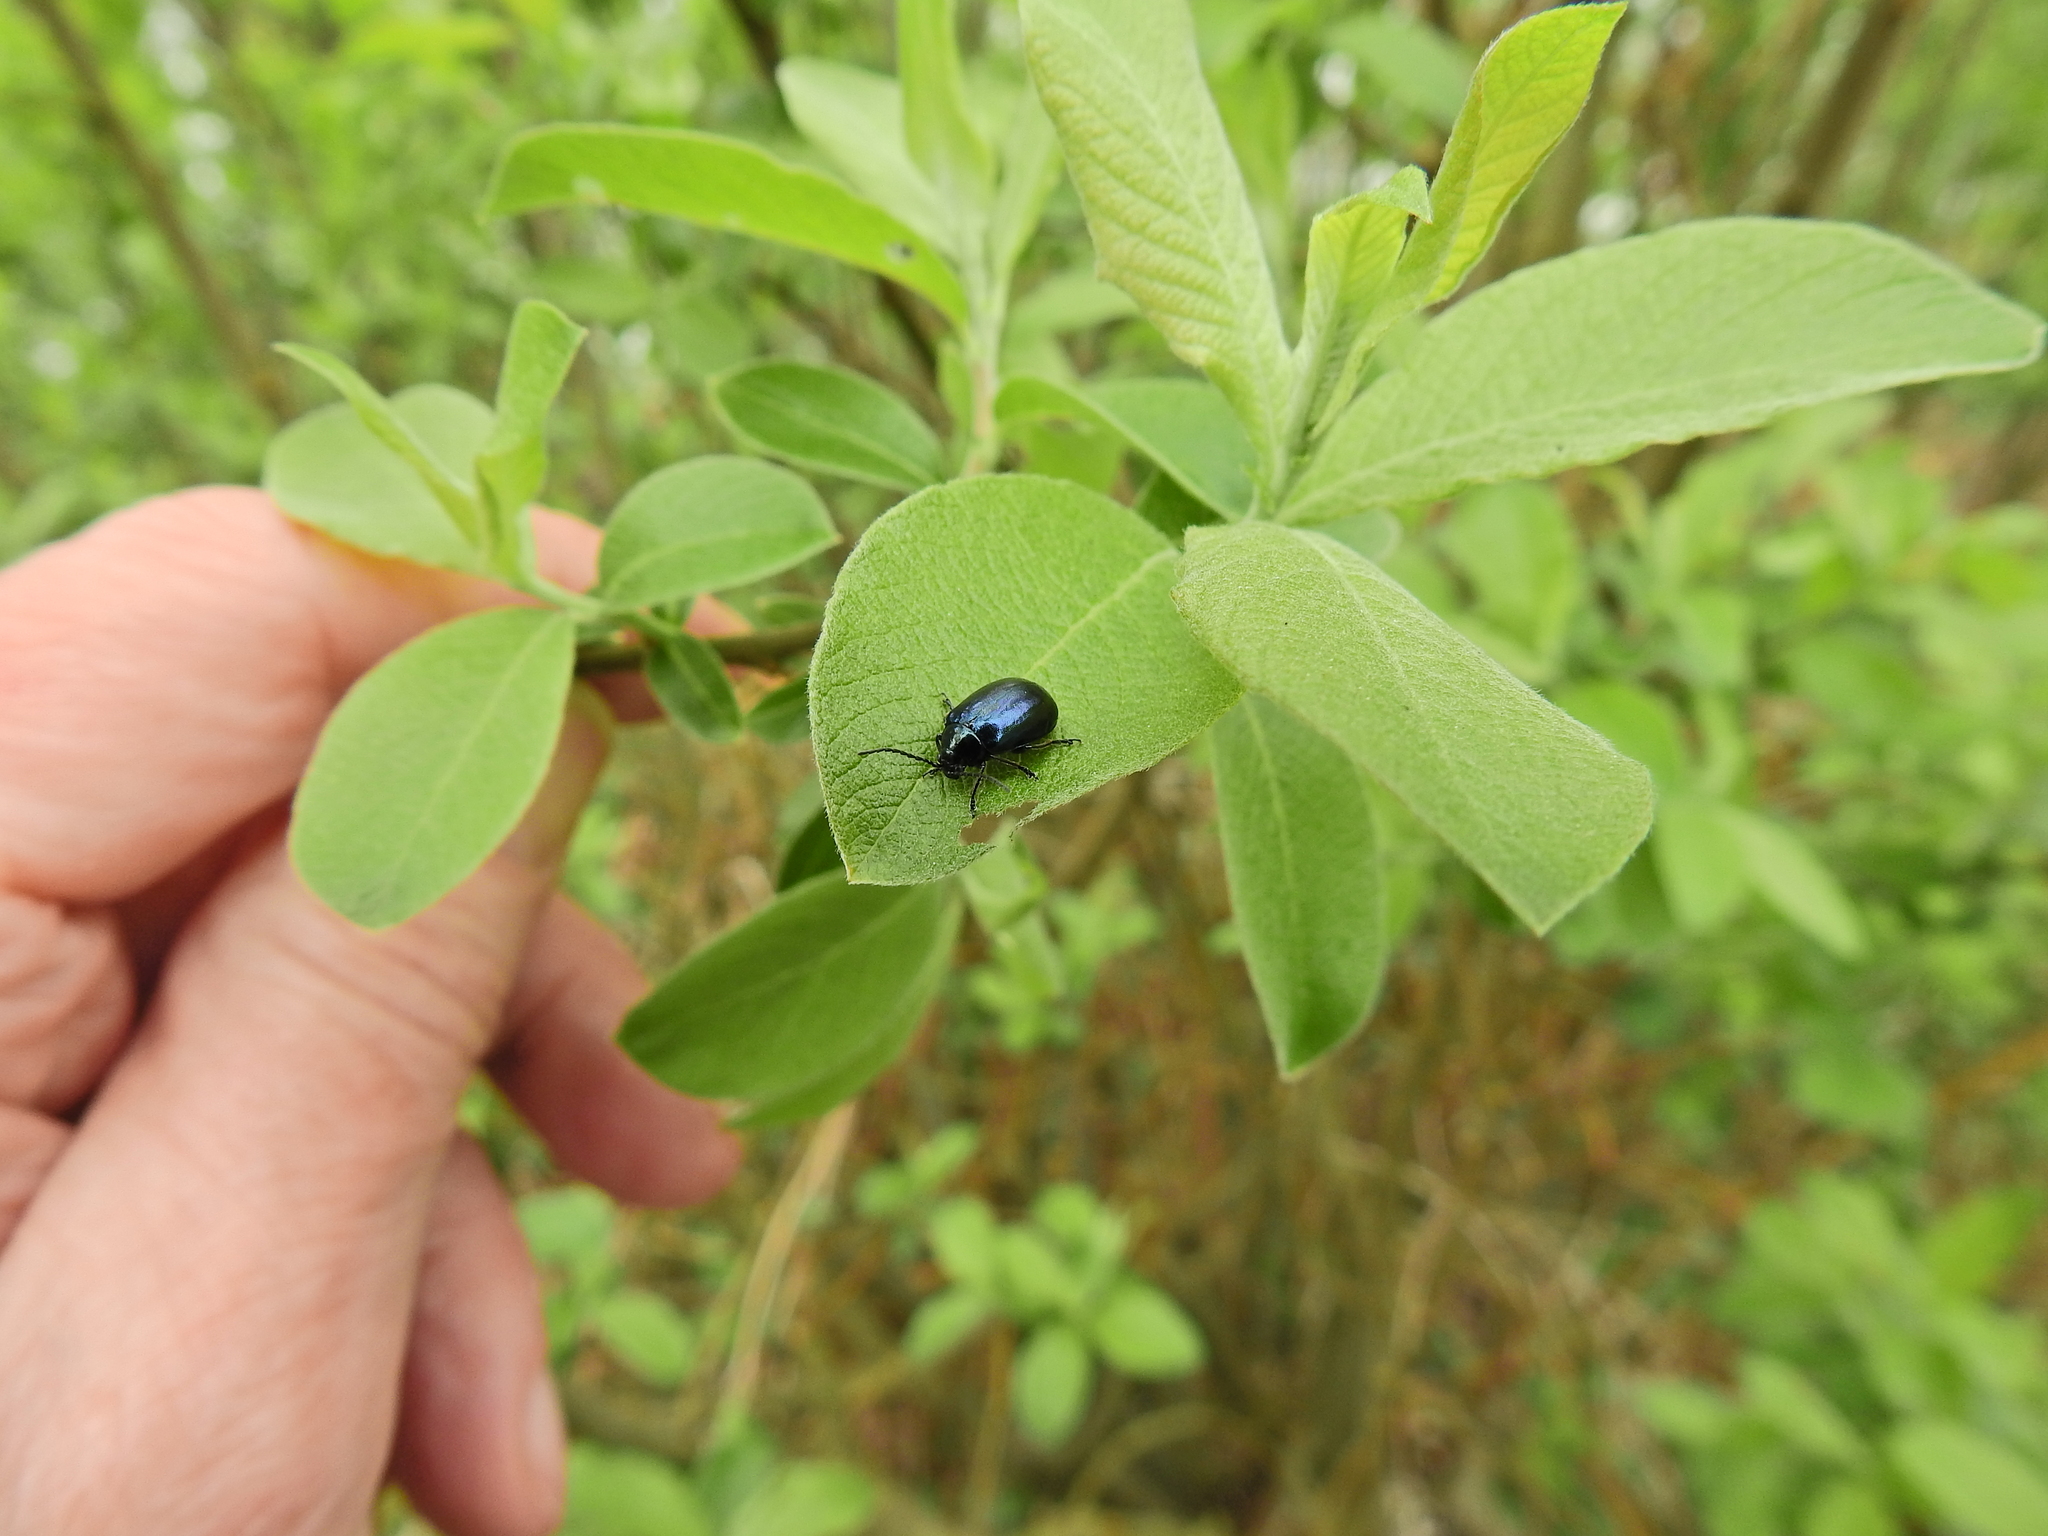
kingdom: Animalia
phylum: Arthropoda
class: Insecta
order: Coleoptera
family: Chrysomelidae
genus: Agelastica
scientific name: Agelastica alni
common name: Alder leaf beetle
